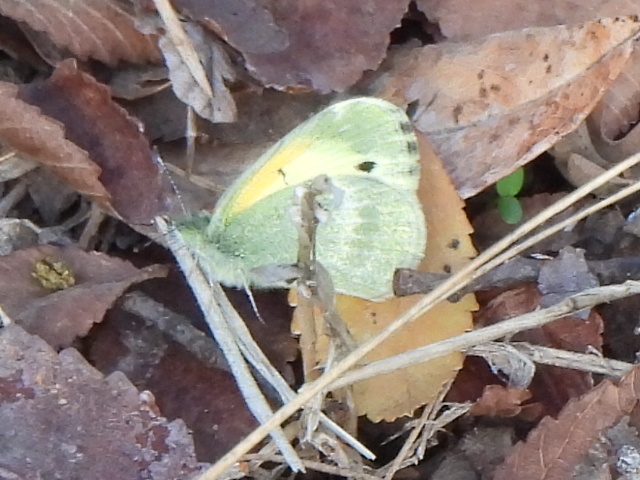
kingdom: Animalia
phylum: Arthropoda
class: Insecta
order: Lepidoptera
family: Pieridae
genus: Nathalis
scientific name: Nathalis iole
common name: Dainty sulphur
